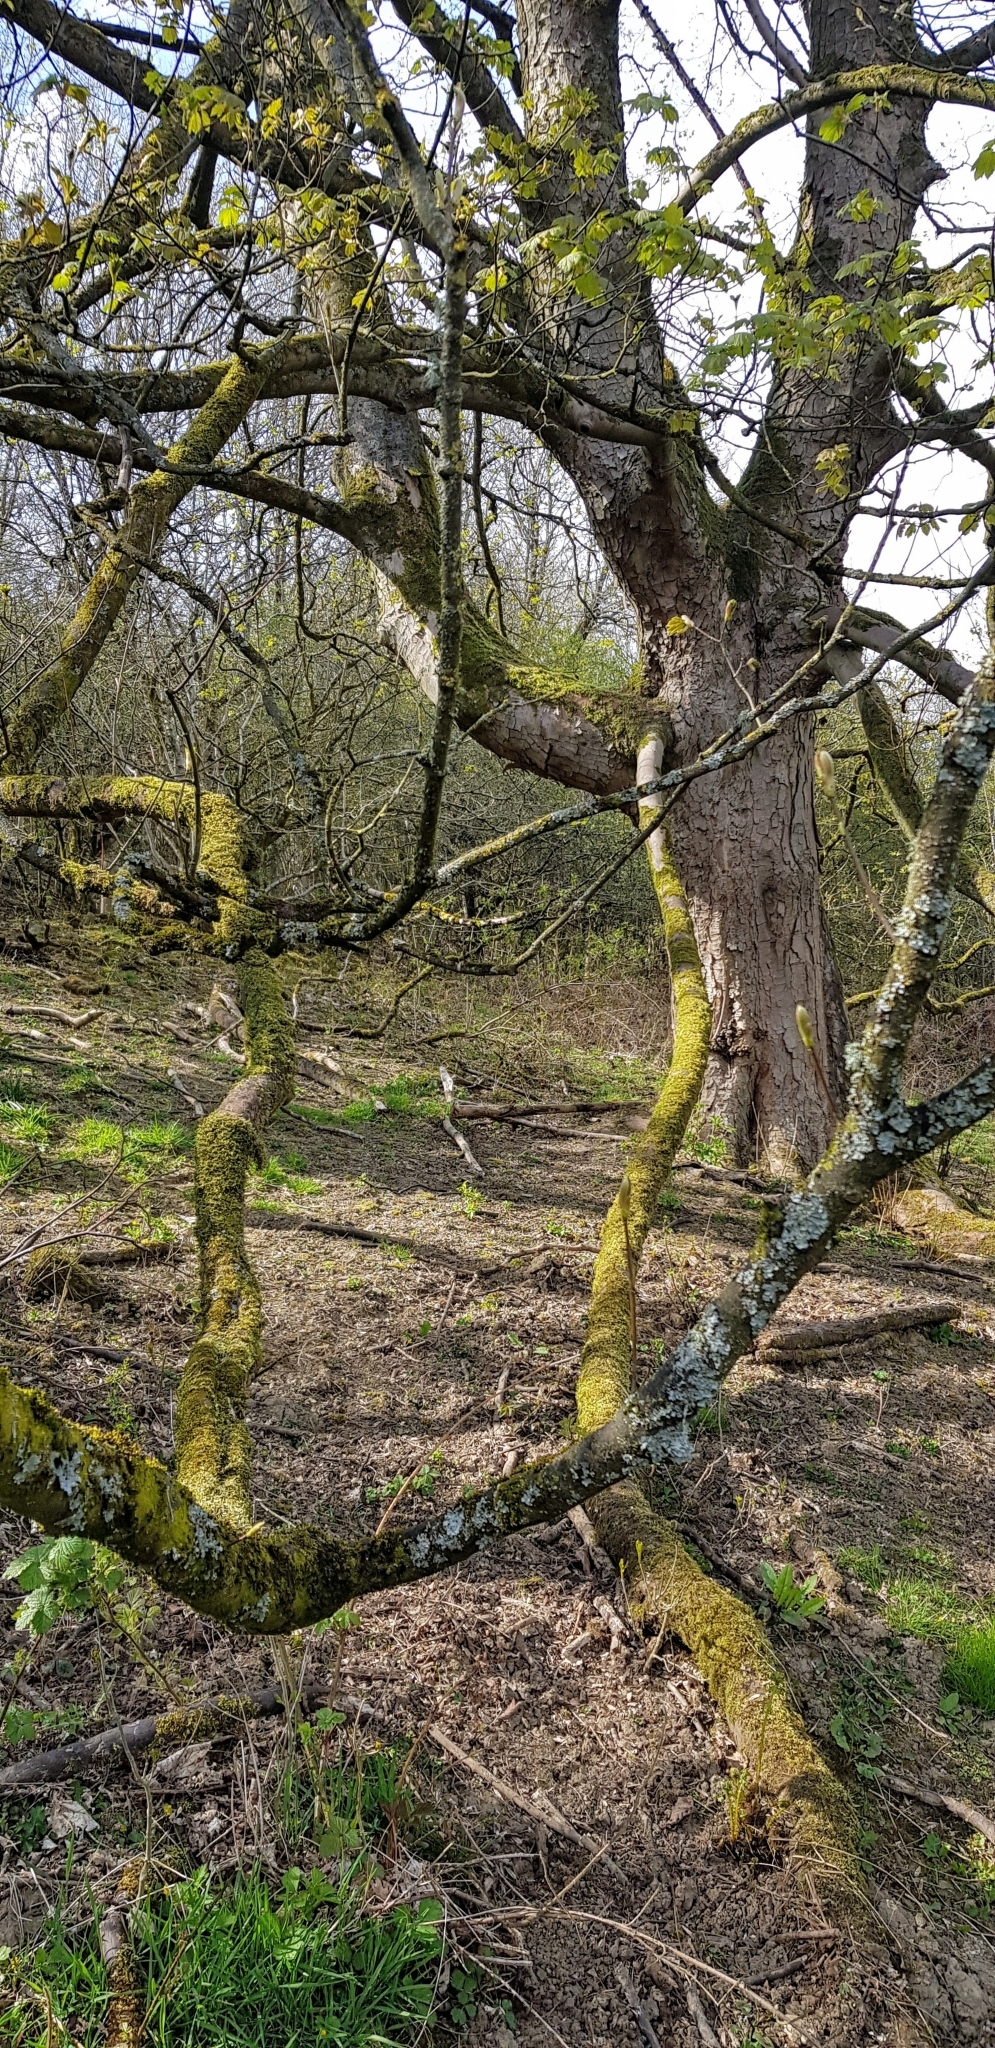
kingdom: Plantae
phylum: Bryophyta
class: Bryopsida
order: Hypnales
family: Cryphaeaceae
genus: Cryphaea
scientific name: Cryphaea heteromalla
